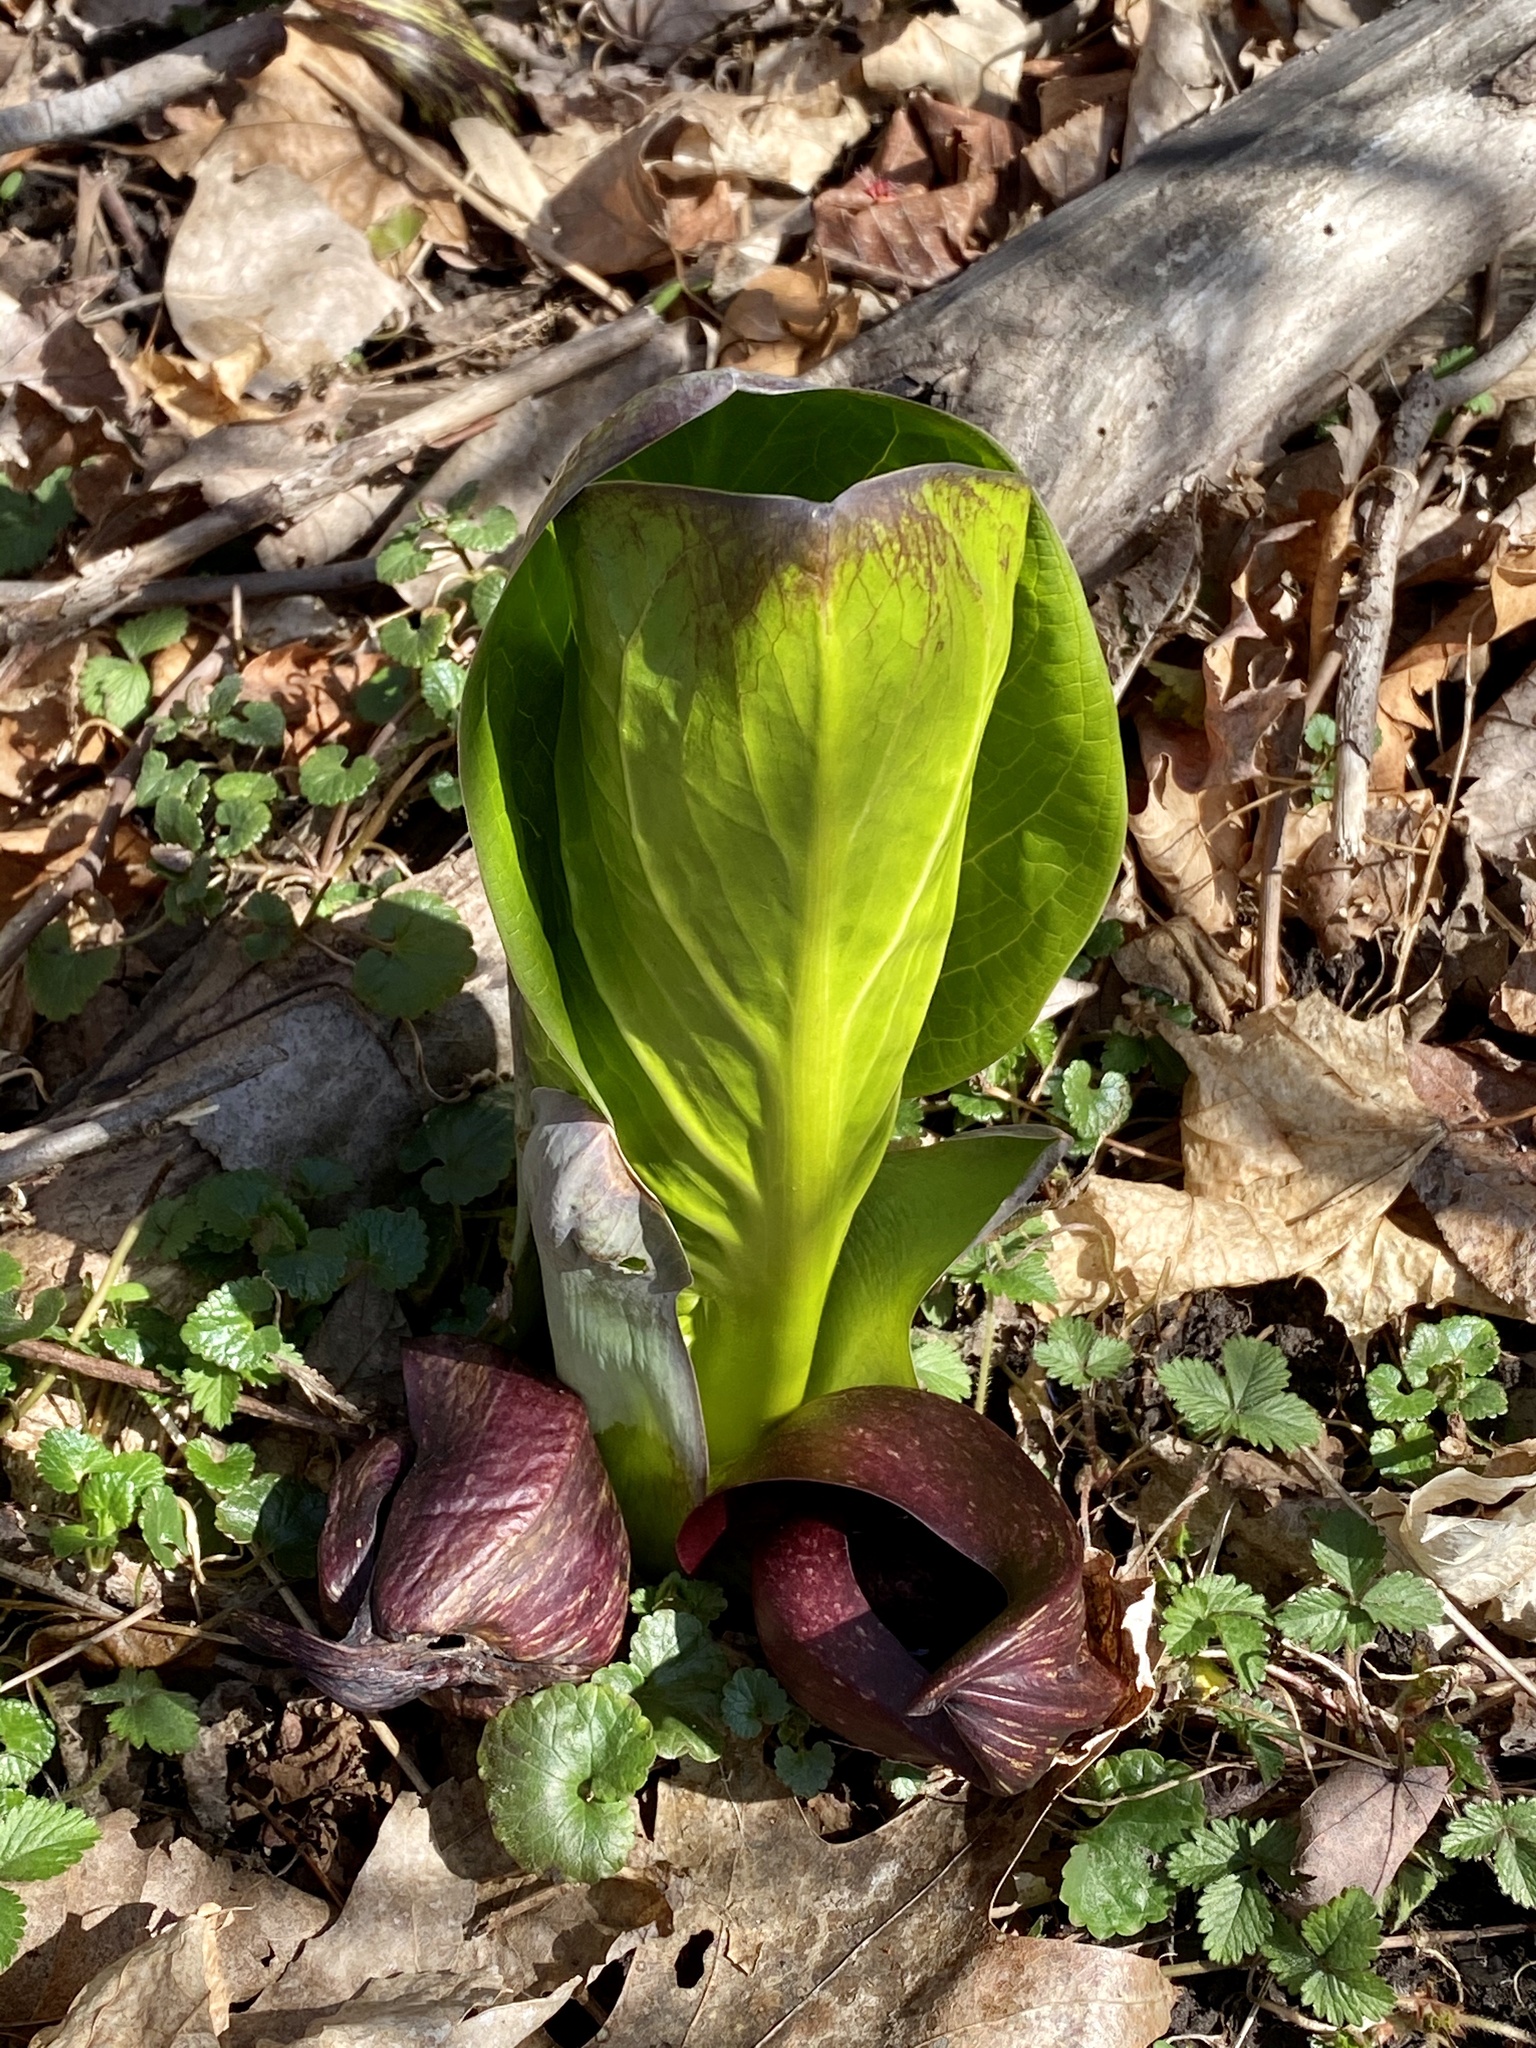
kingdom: Plantae
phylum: Tracheophyta
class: Liliopsida
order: Alismatales
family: Araceae
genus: Symplocarpus
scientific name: Symplocarpus foetidus
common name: Eastern skunk cabbage
